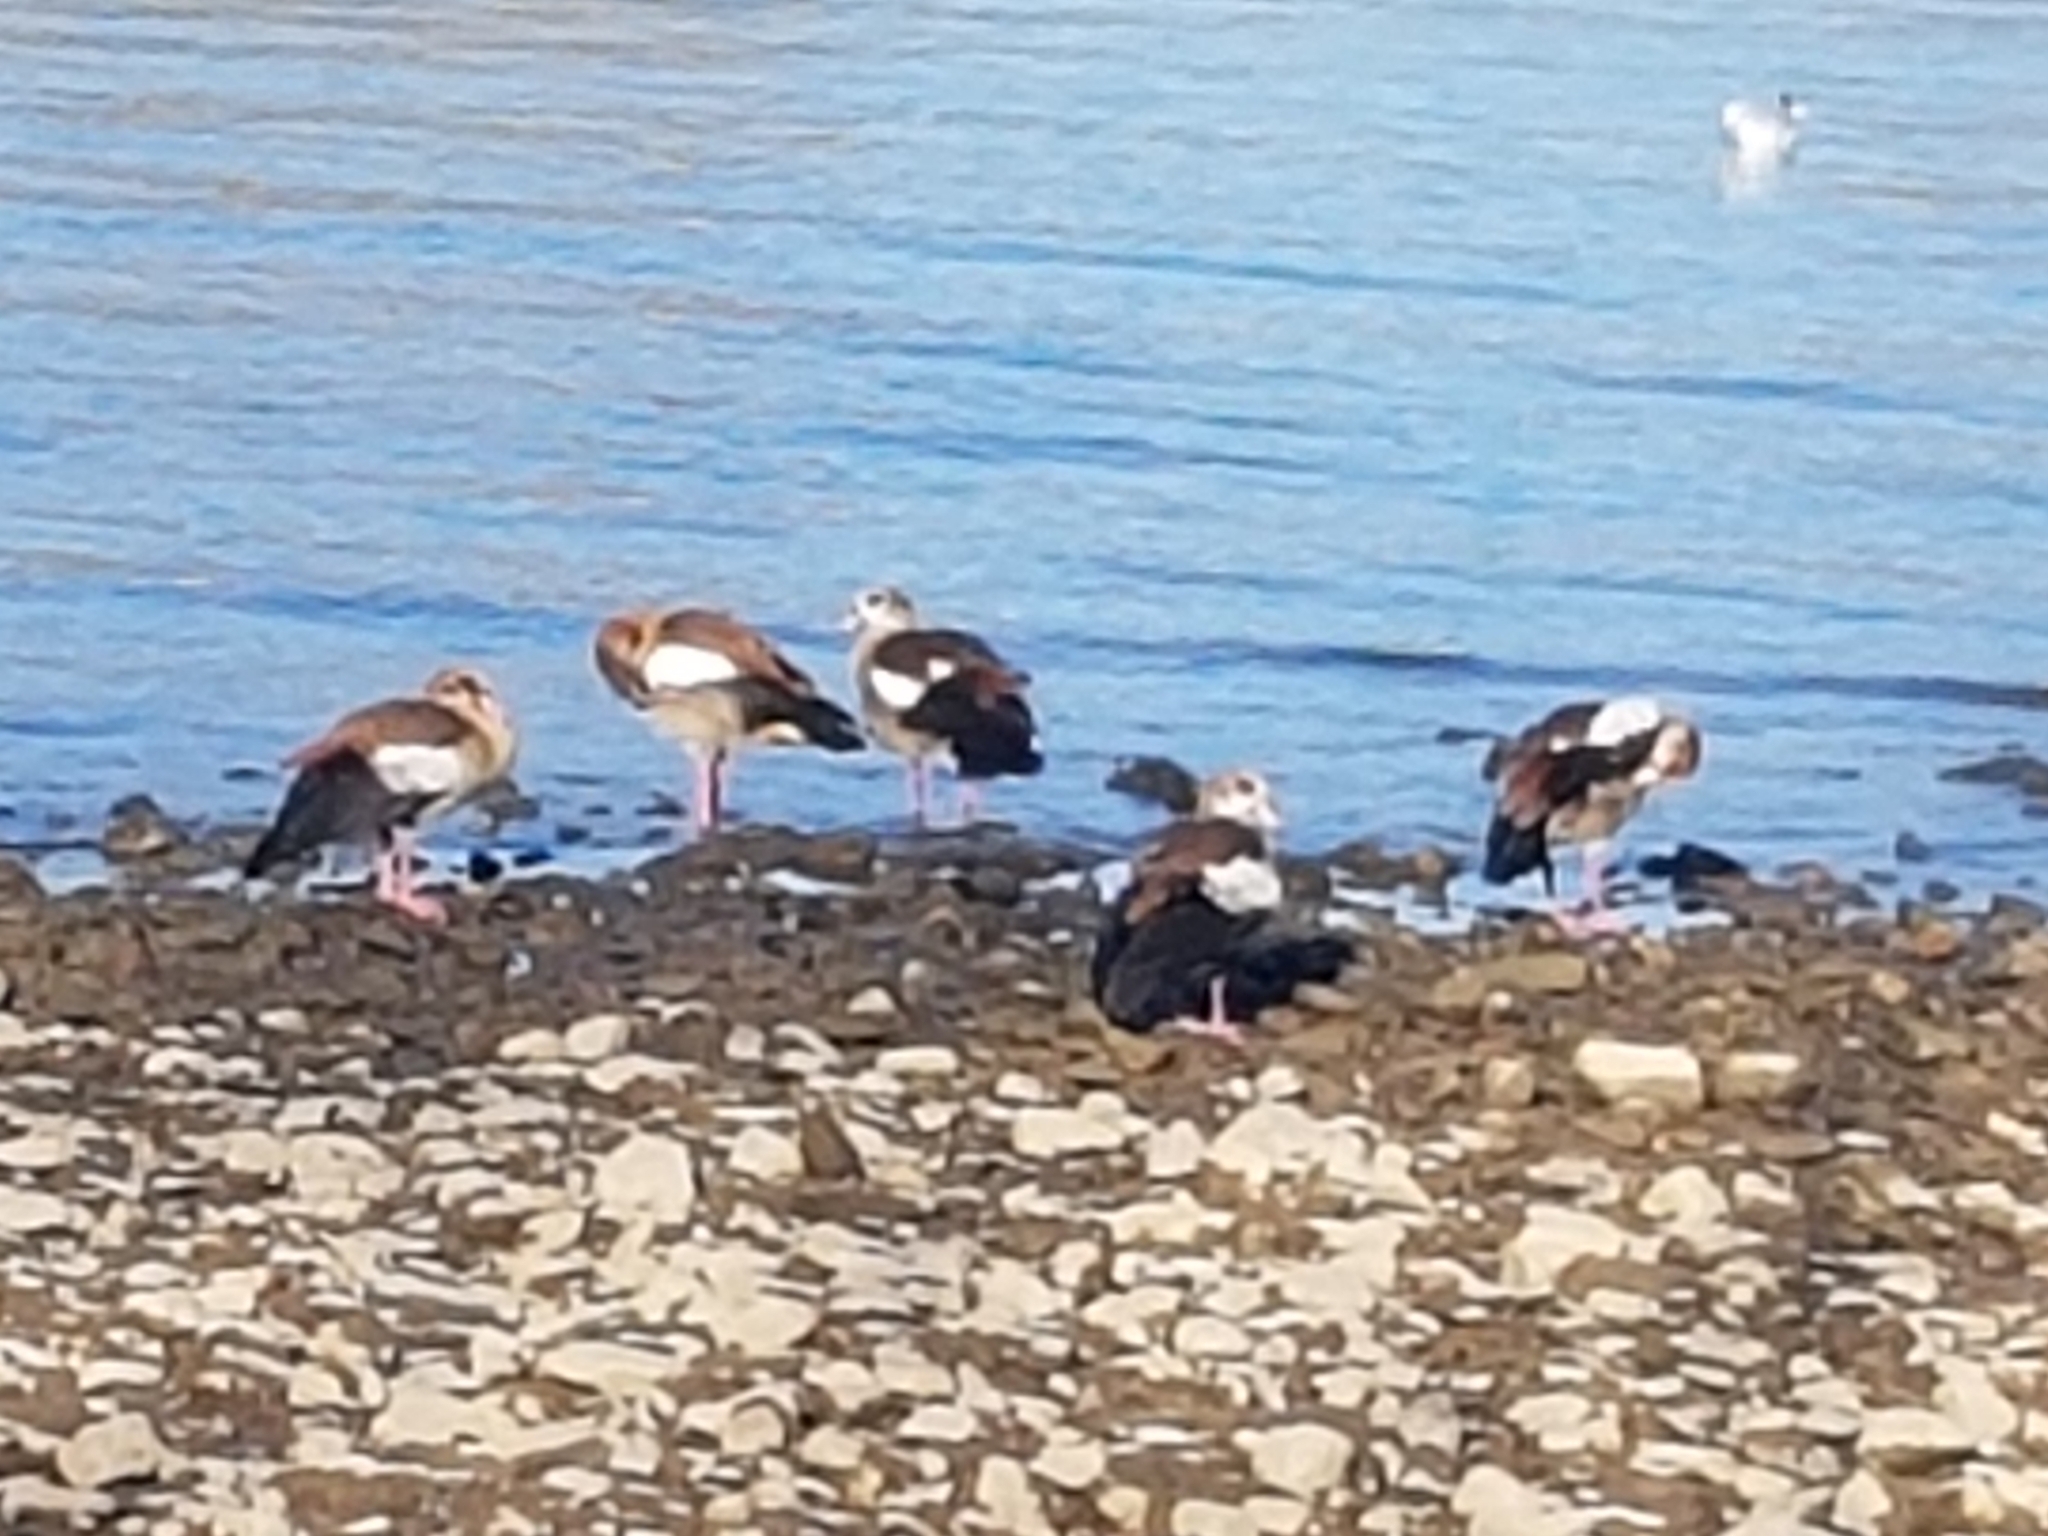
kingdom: Animalia
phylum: Chordata
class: Aves
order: Anseriformes
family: Anatidae
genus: Alopochen
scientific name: Alopochen aegyptiaca
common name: Egyptian goose
